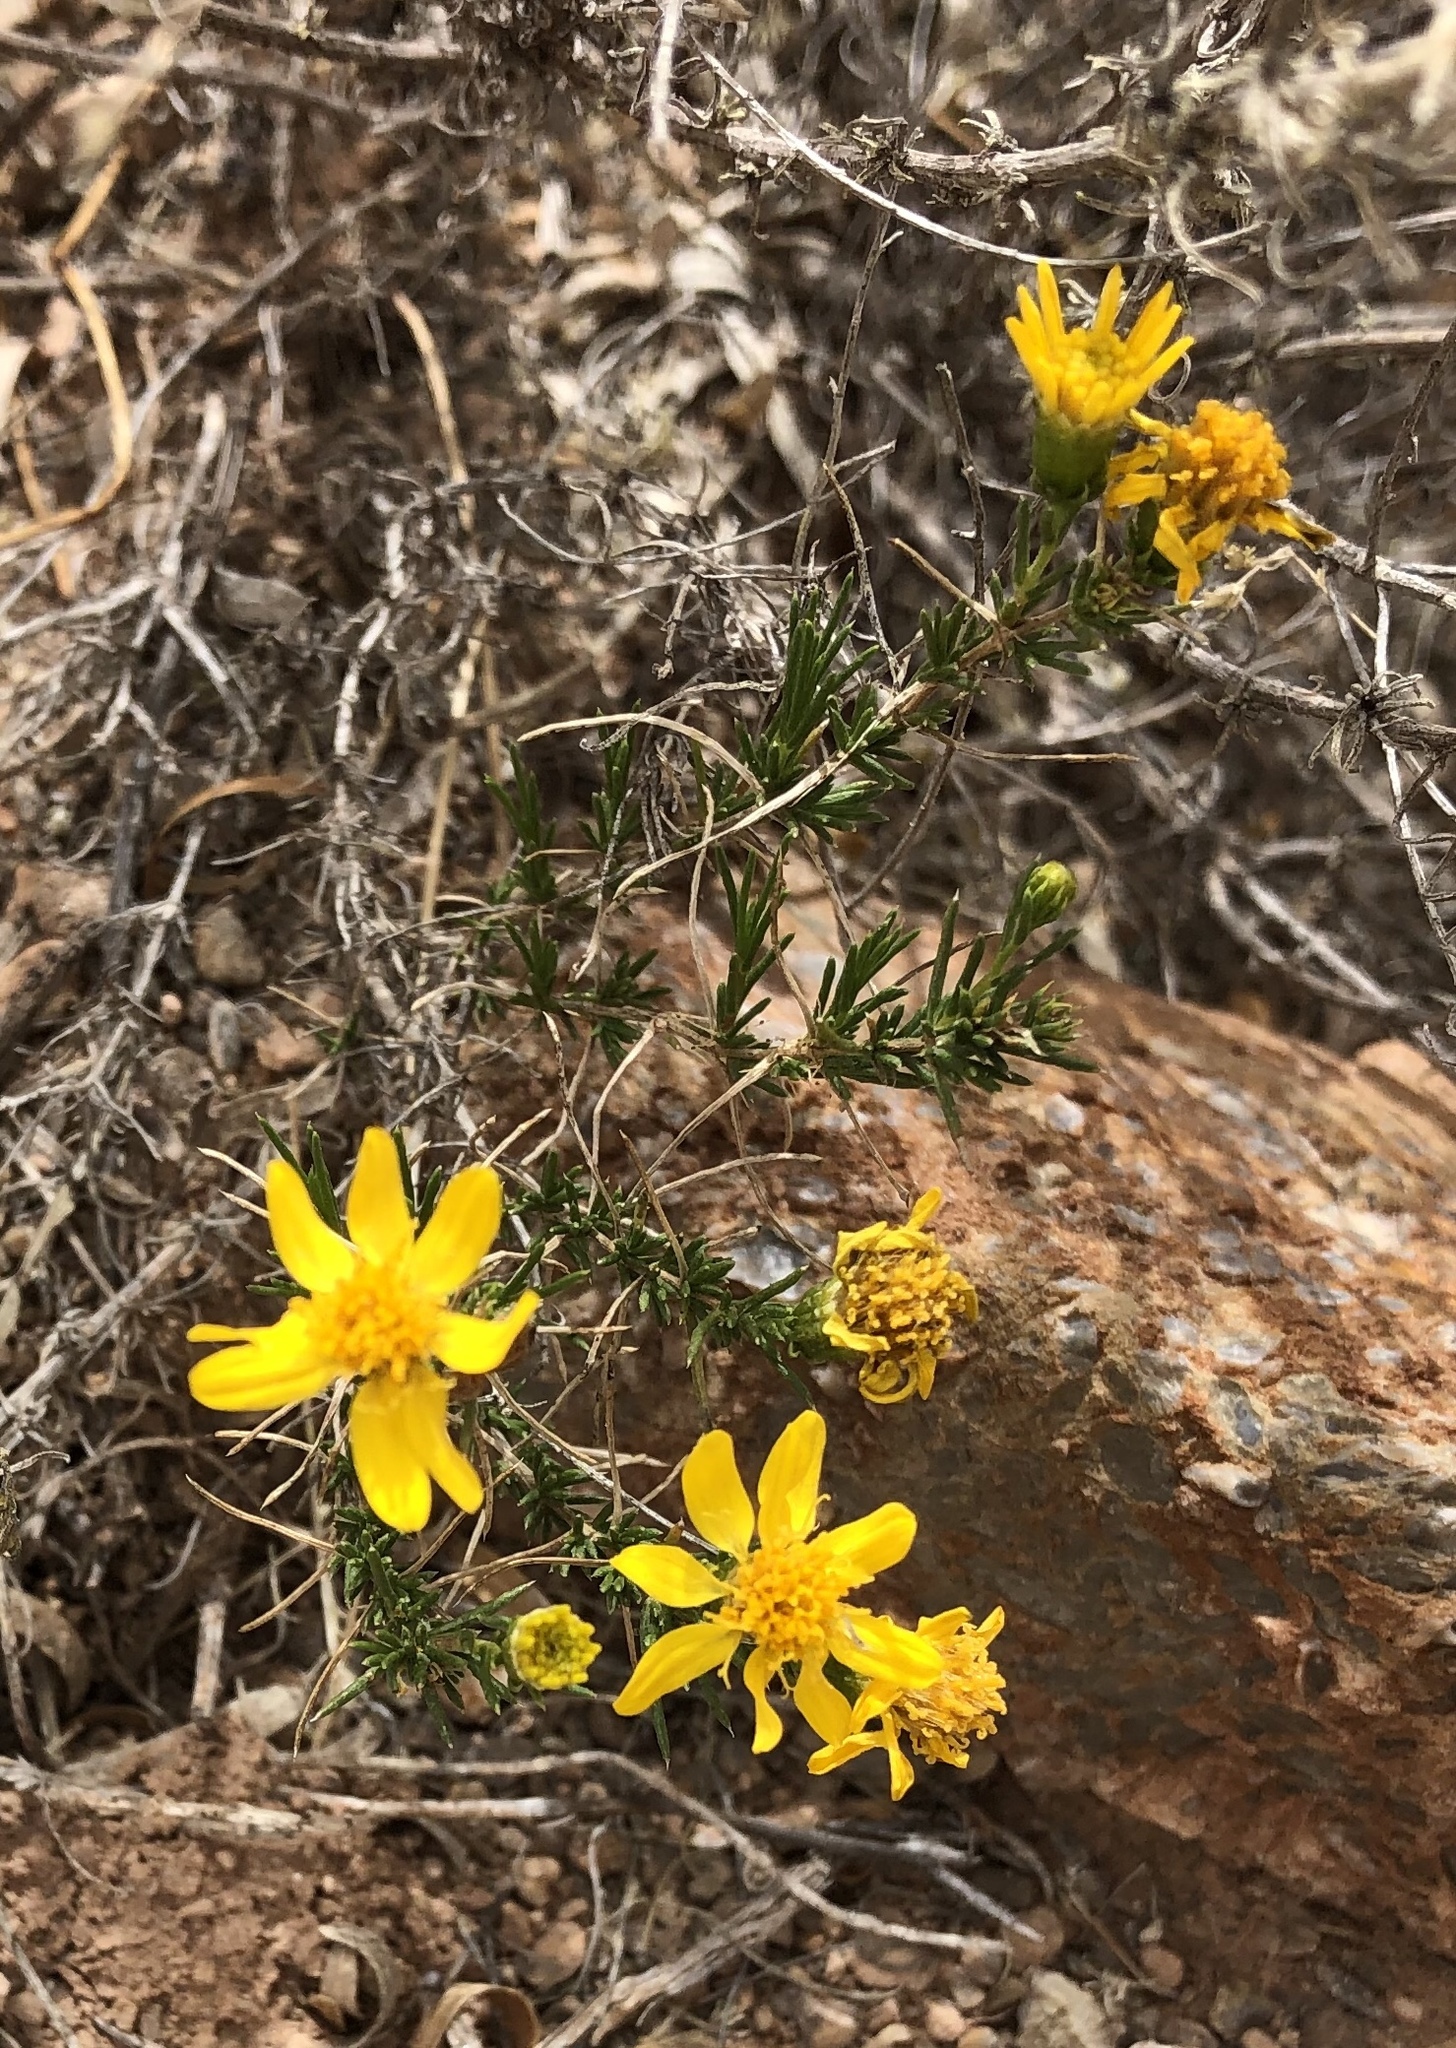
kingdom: Plantae
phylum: Tracheophyta
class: Magnoliopsida
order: Asterales
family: Asteraceae
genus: Thymophylla
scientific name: Thymophylla acerosa
